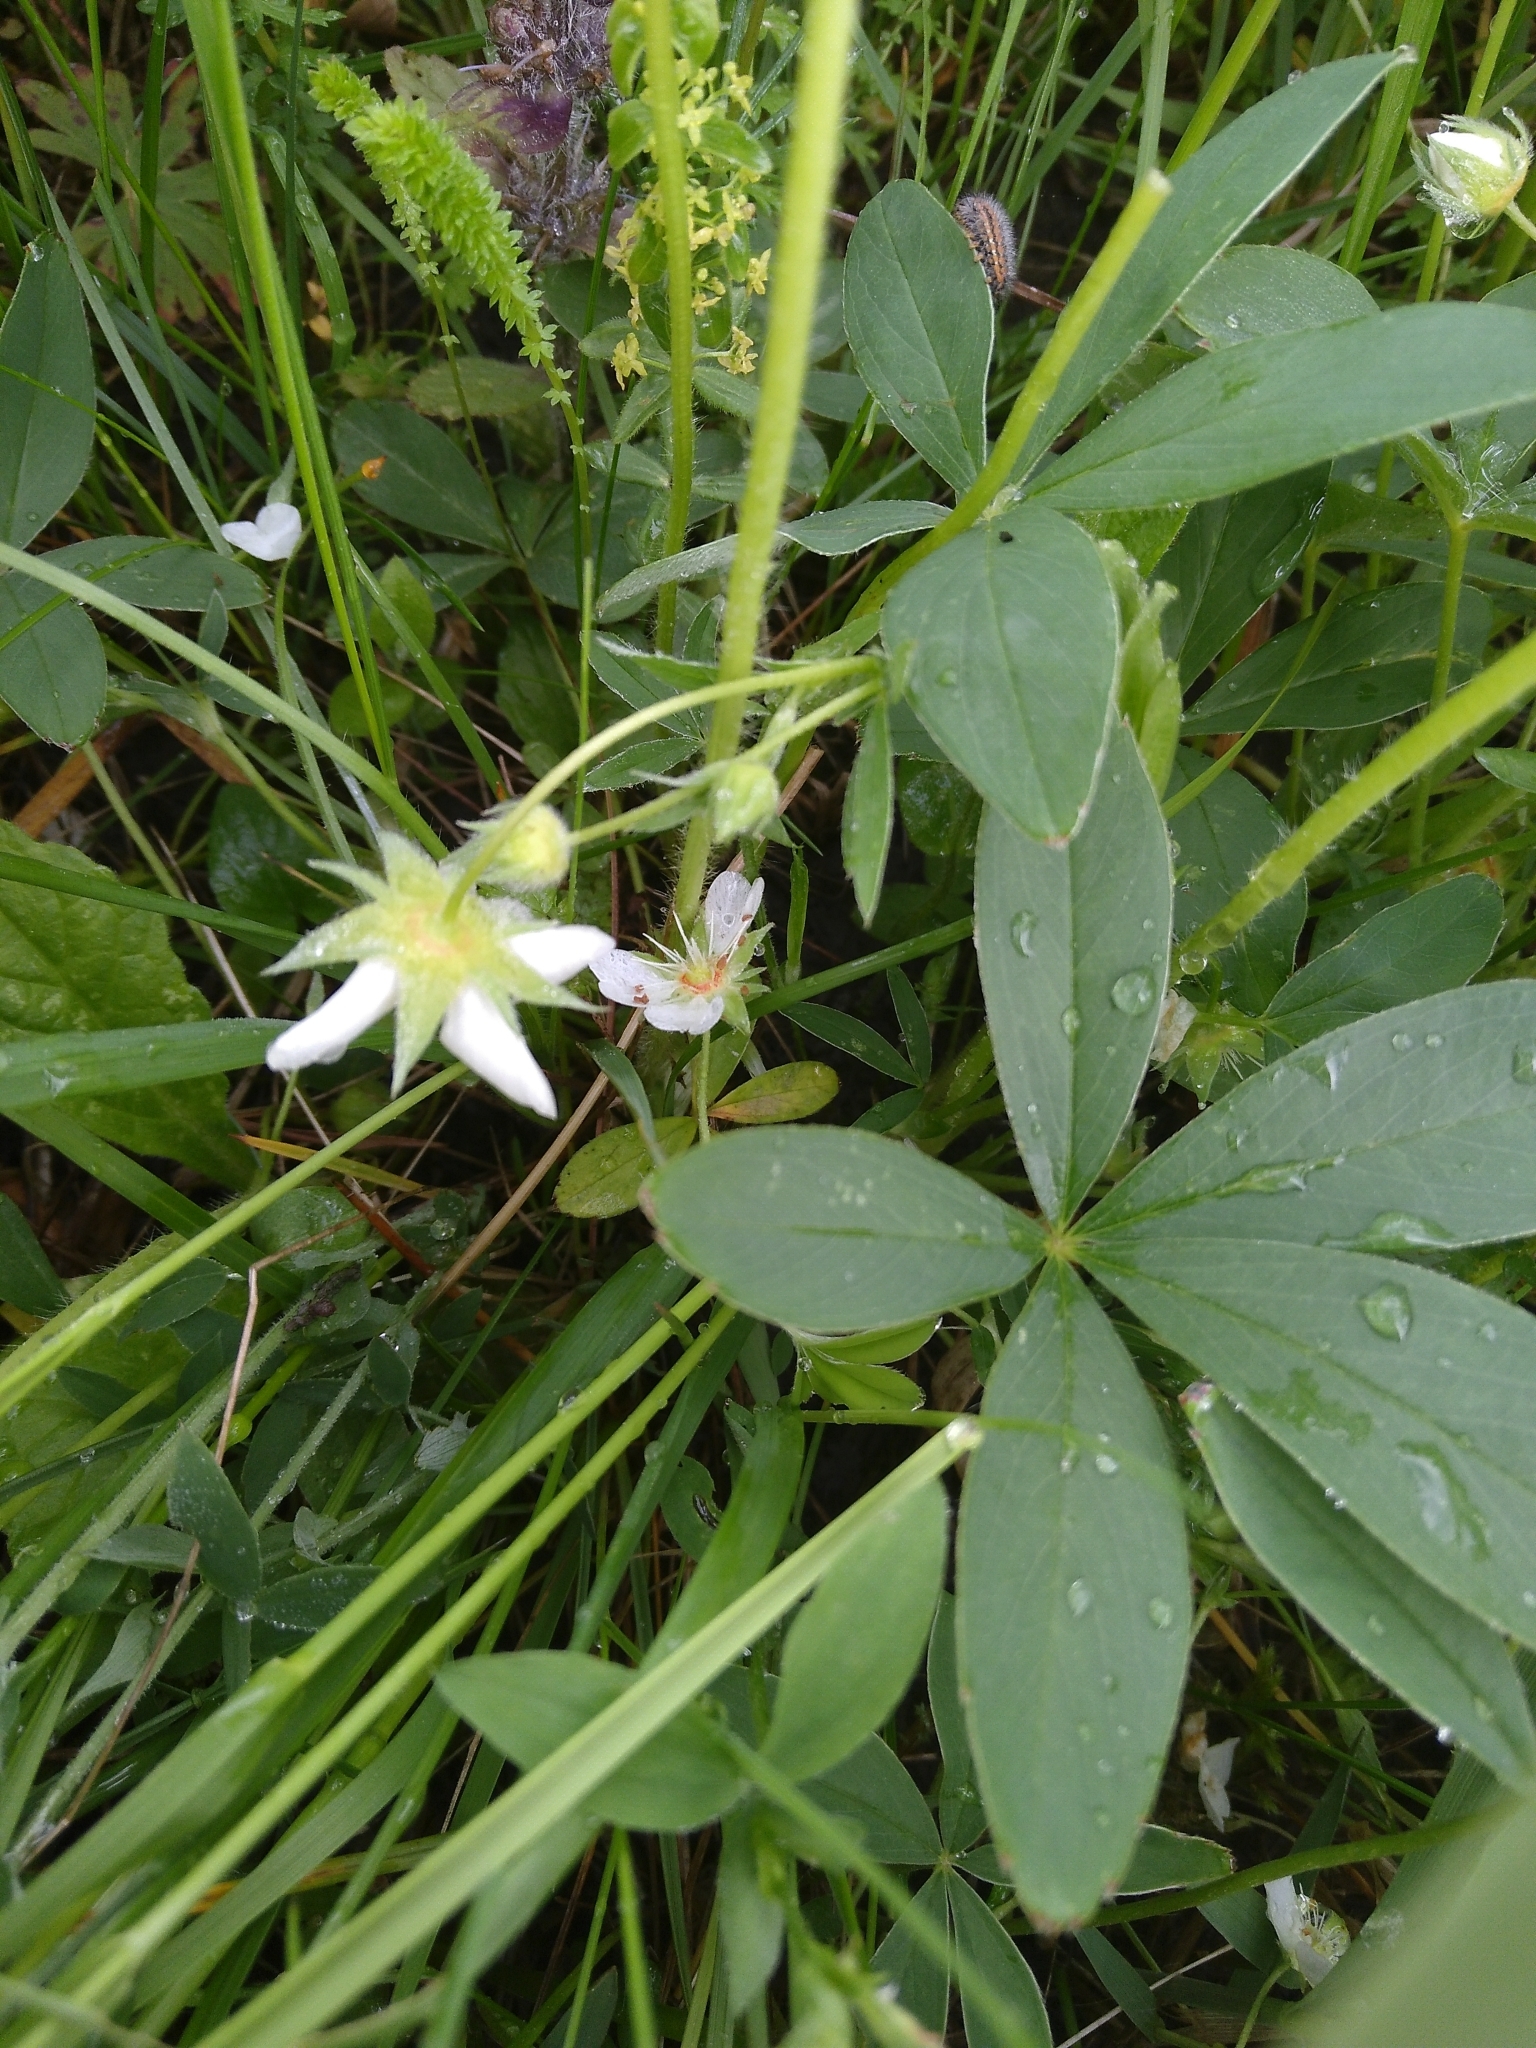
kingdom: Plantae
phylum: Tracheophyta
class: Magnoliopsida
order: Rosales
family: Rosaceae
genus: Potentilla
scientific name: Potentilla alba
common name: White cinquefoil
